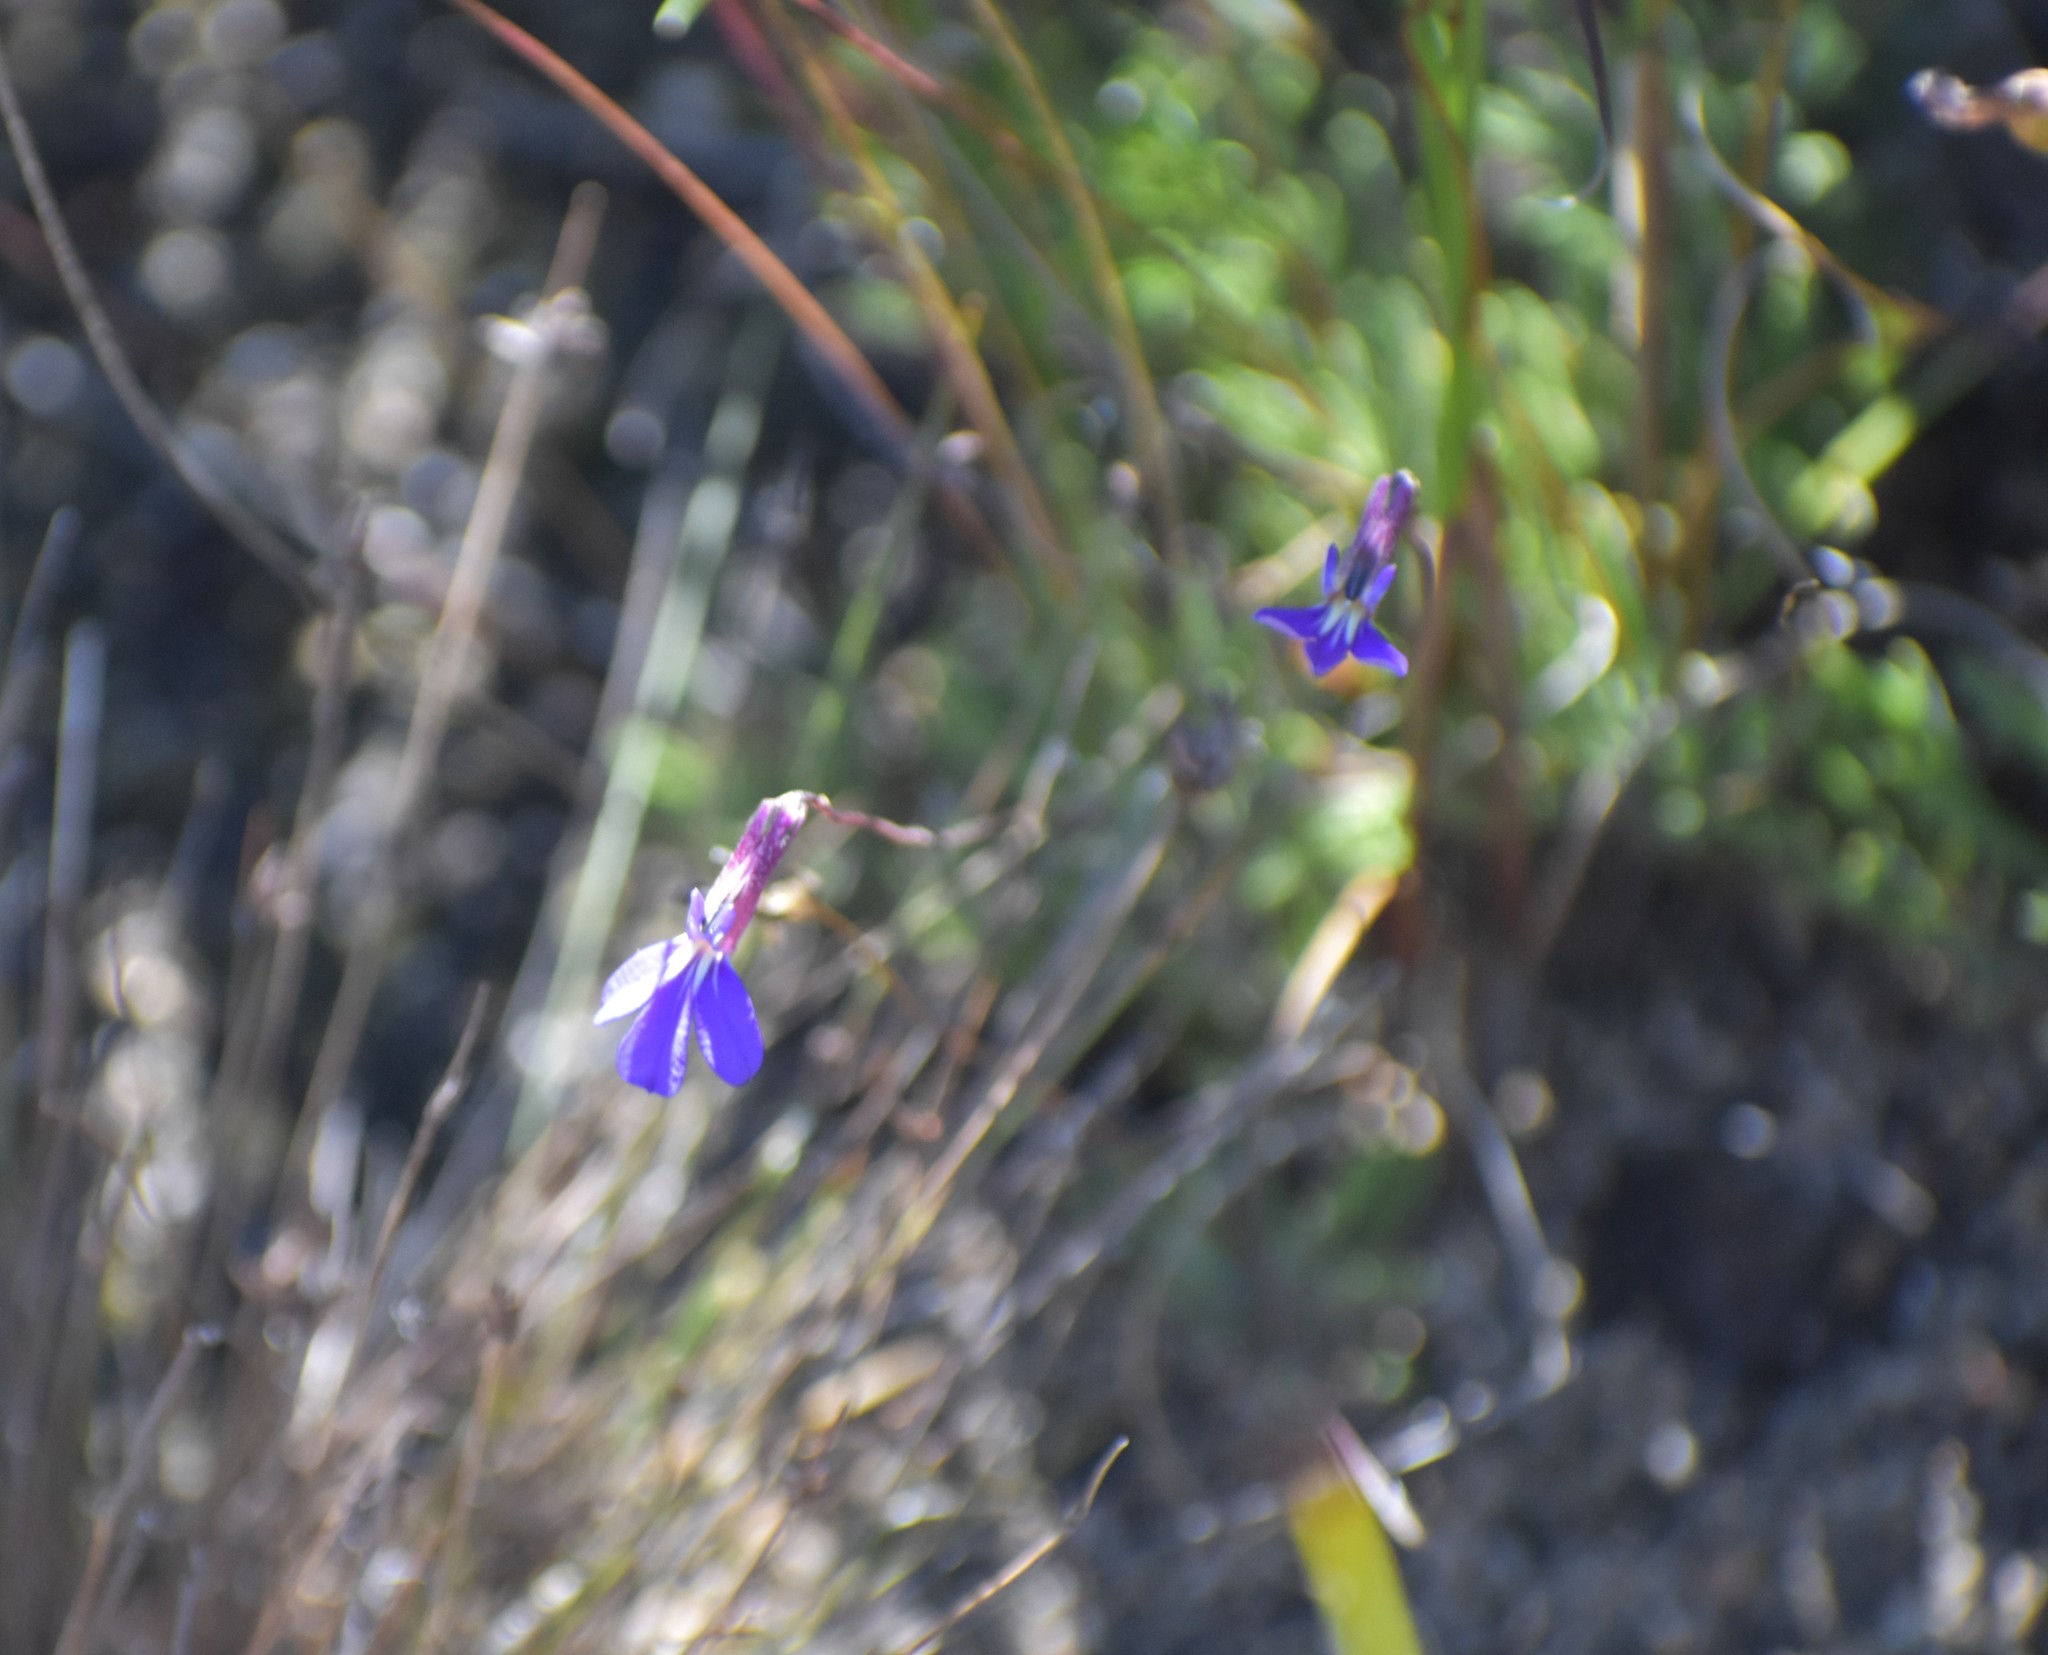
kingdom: Plantae
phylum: Tracheophyta
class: Magnoliopsida
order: Asterales
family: Campanulaceae
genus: Lobelia
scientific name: Lobelia tomentosa
